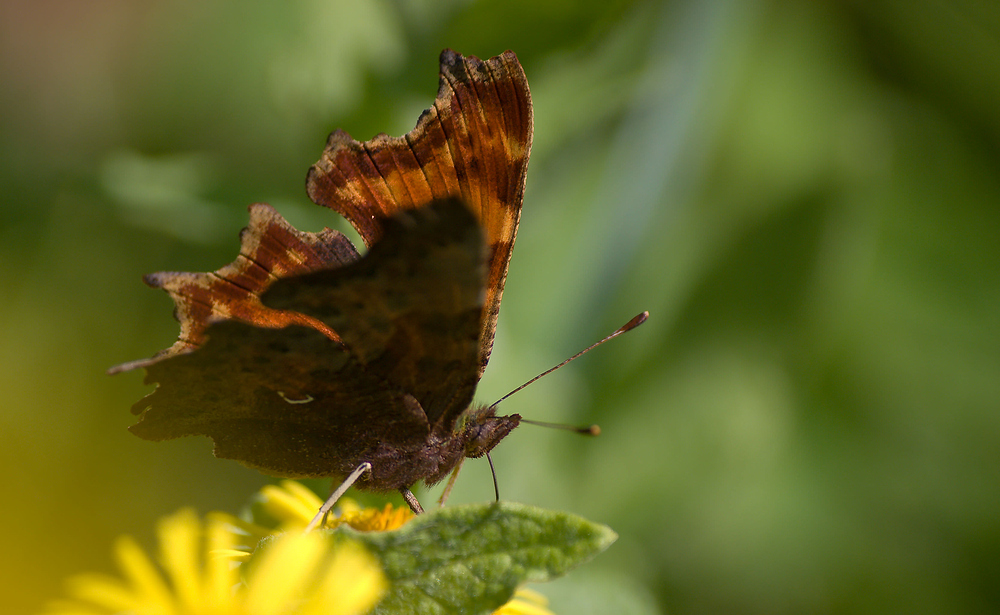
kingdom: Animalia
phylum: Arthropoda
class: Insecta
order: Lepidoptera
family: Nymphalidae
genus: Polygonia
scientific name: Polygonia c-album
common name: Comma
